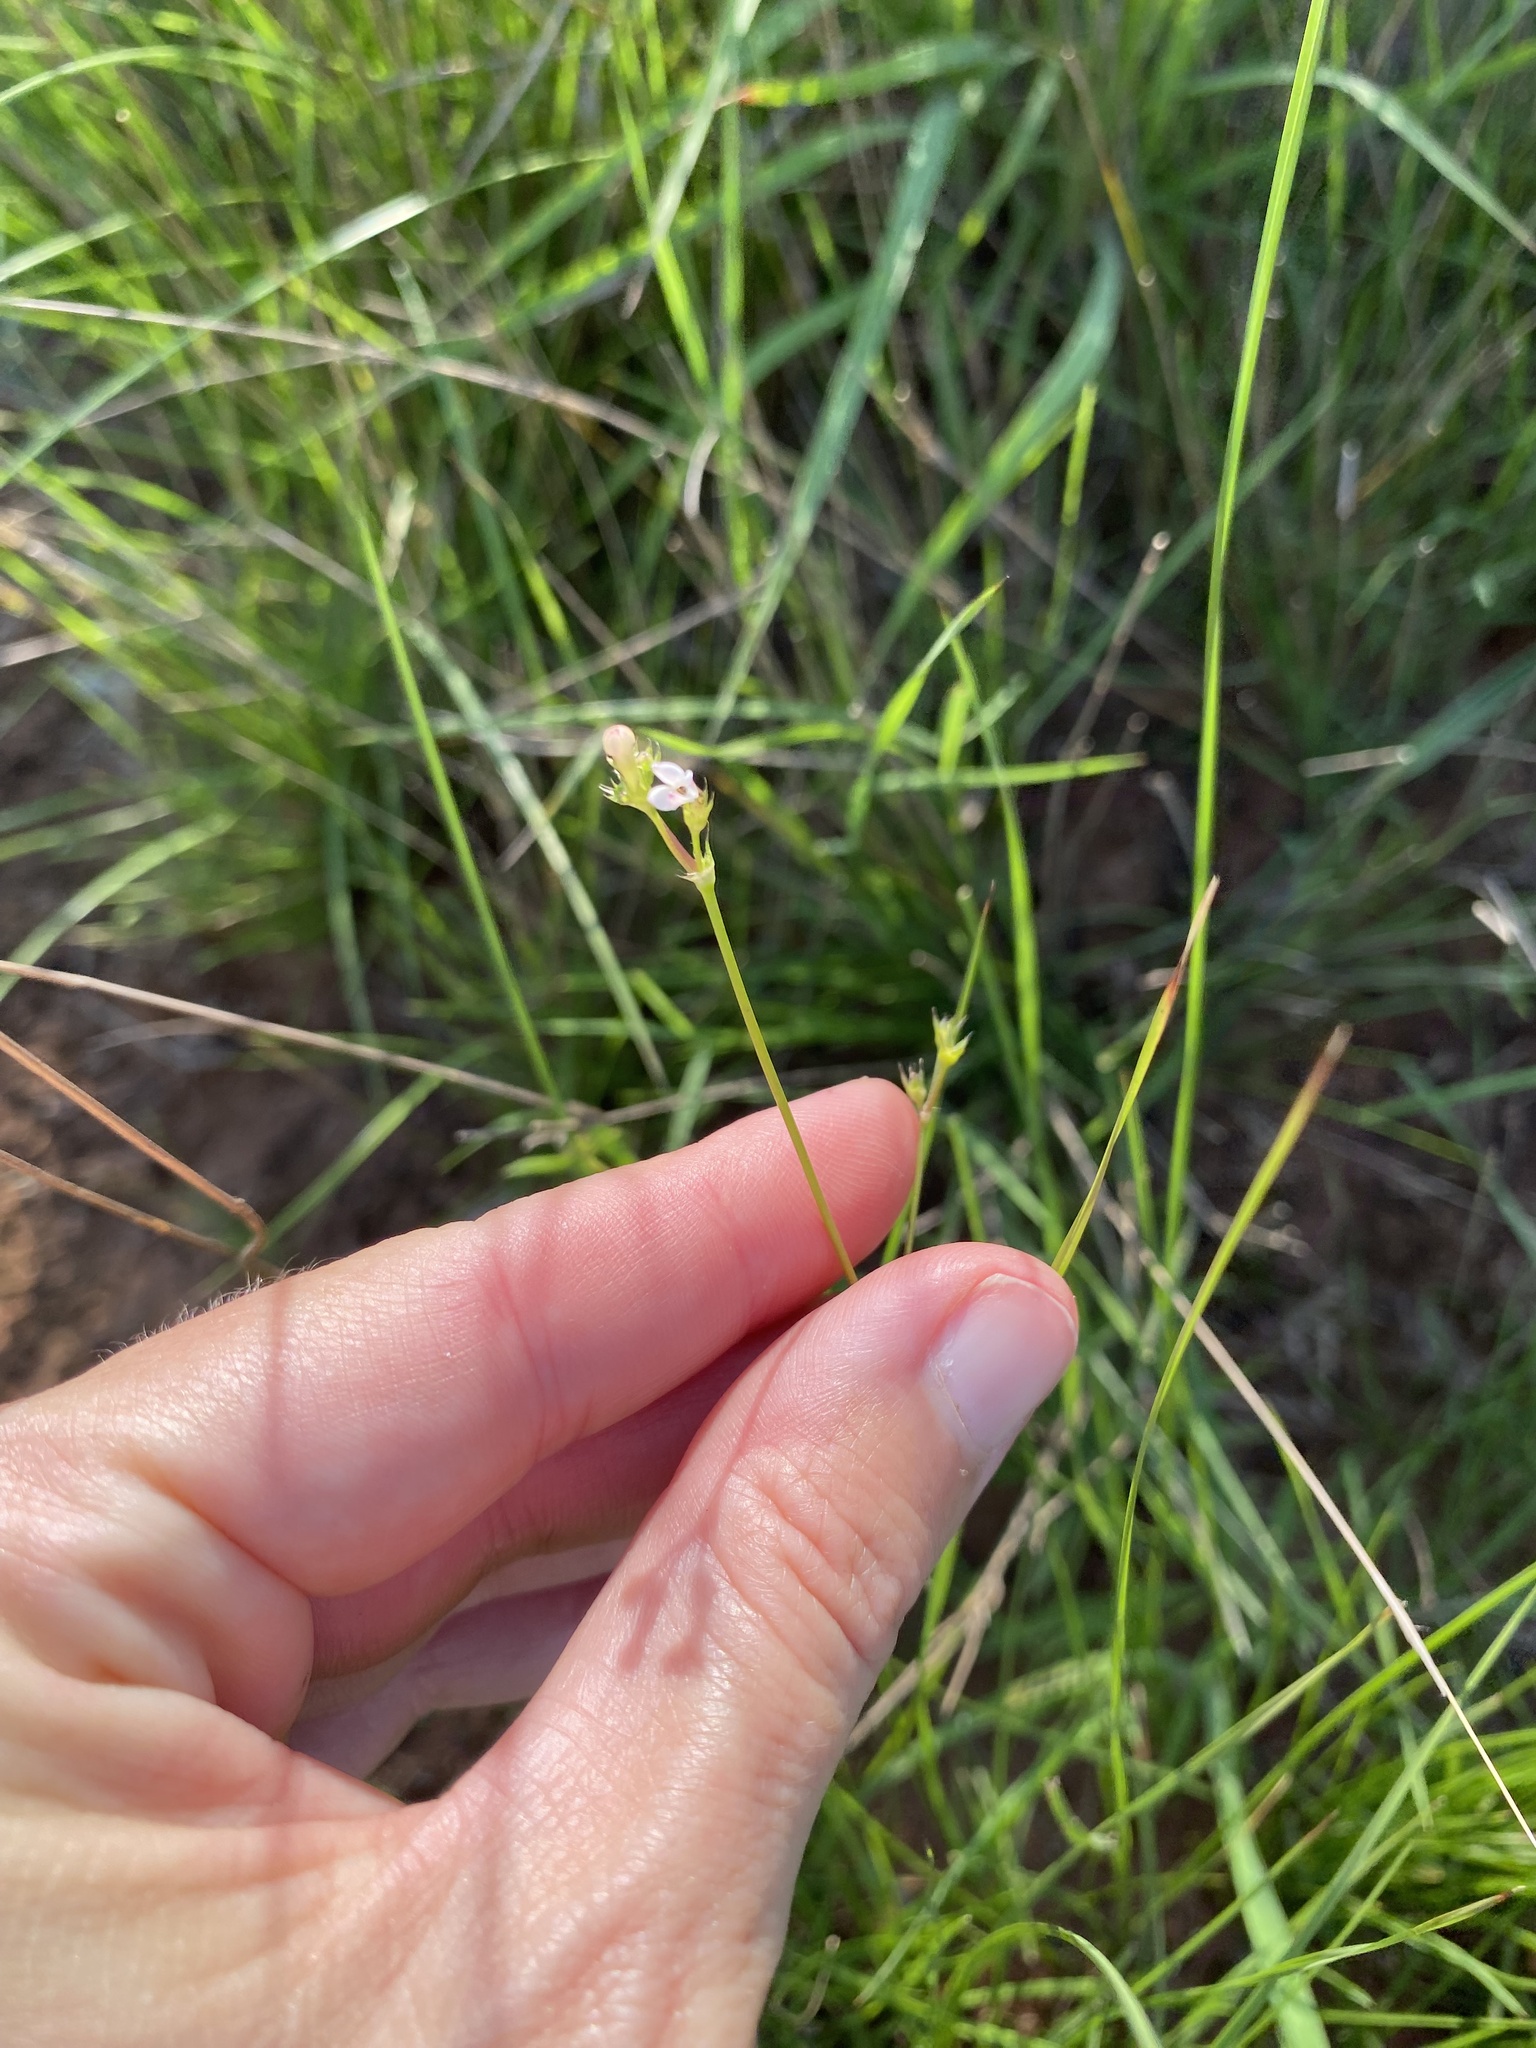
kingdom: Plantae
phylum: Tracheophyta
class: Magnoliopsida
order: Gentianales
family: Rubiaceae
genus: Cordylostigma
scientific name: Cordylostigma virgatum
